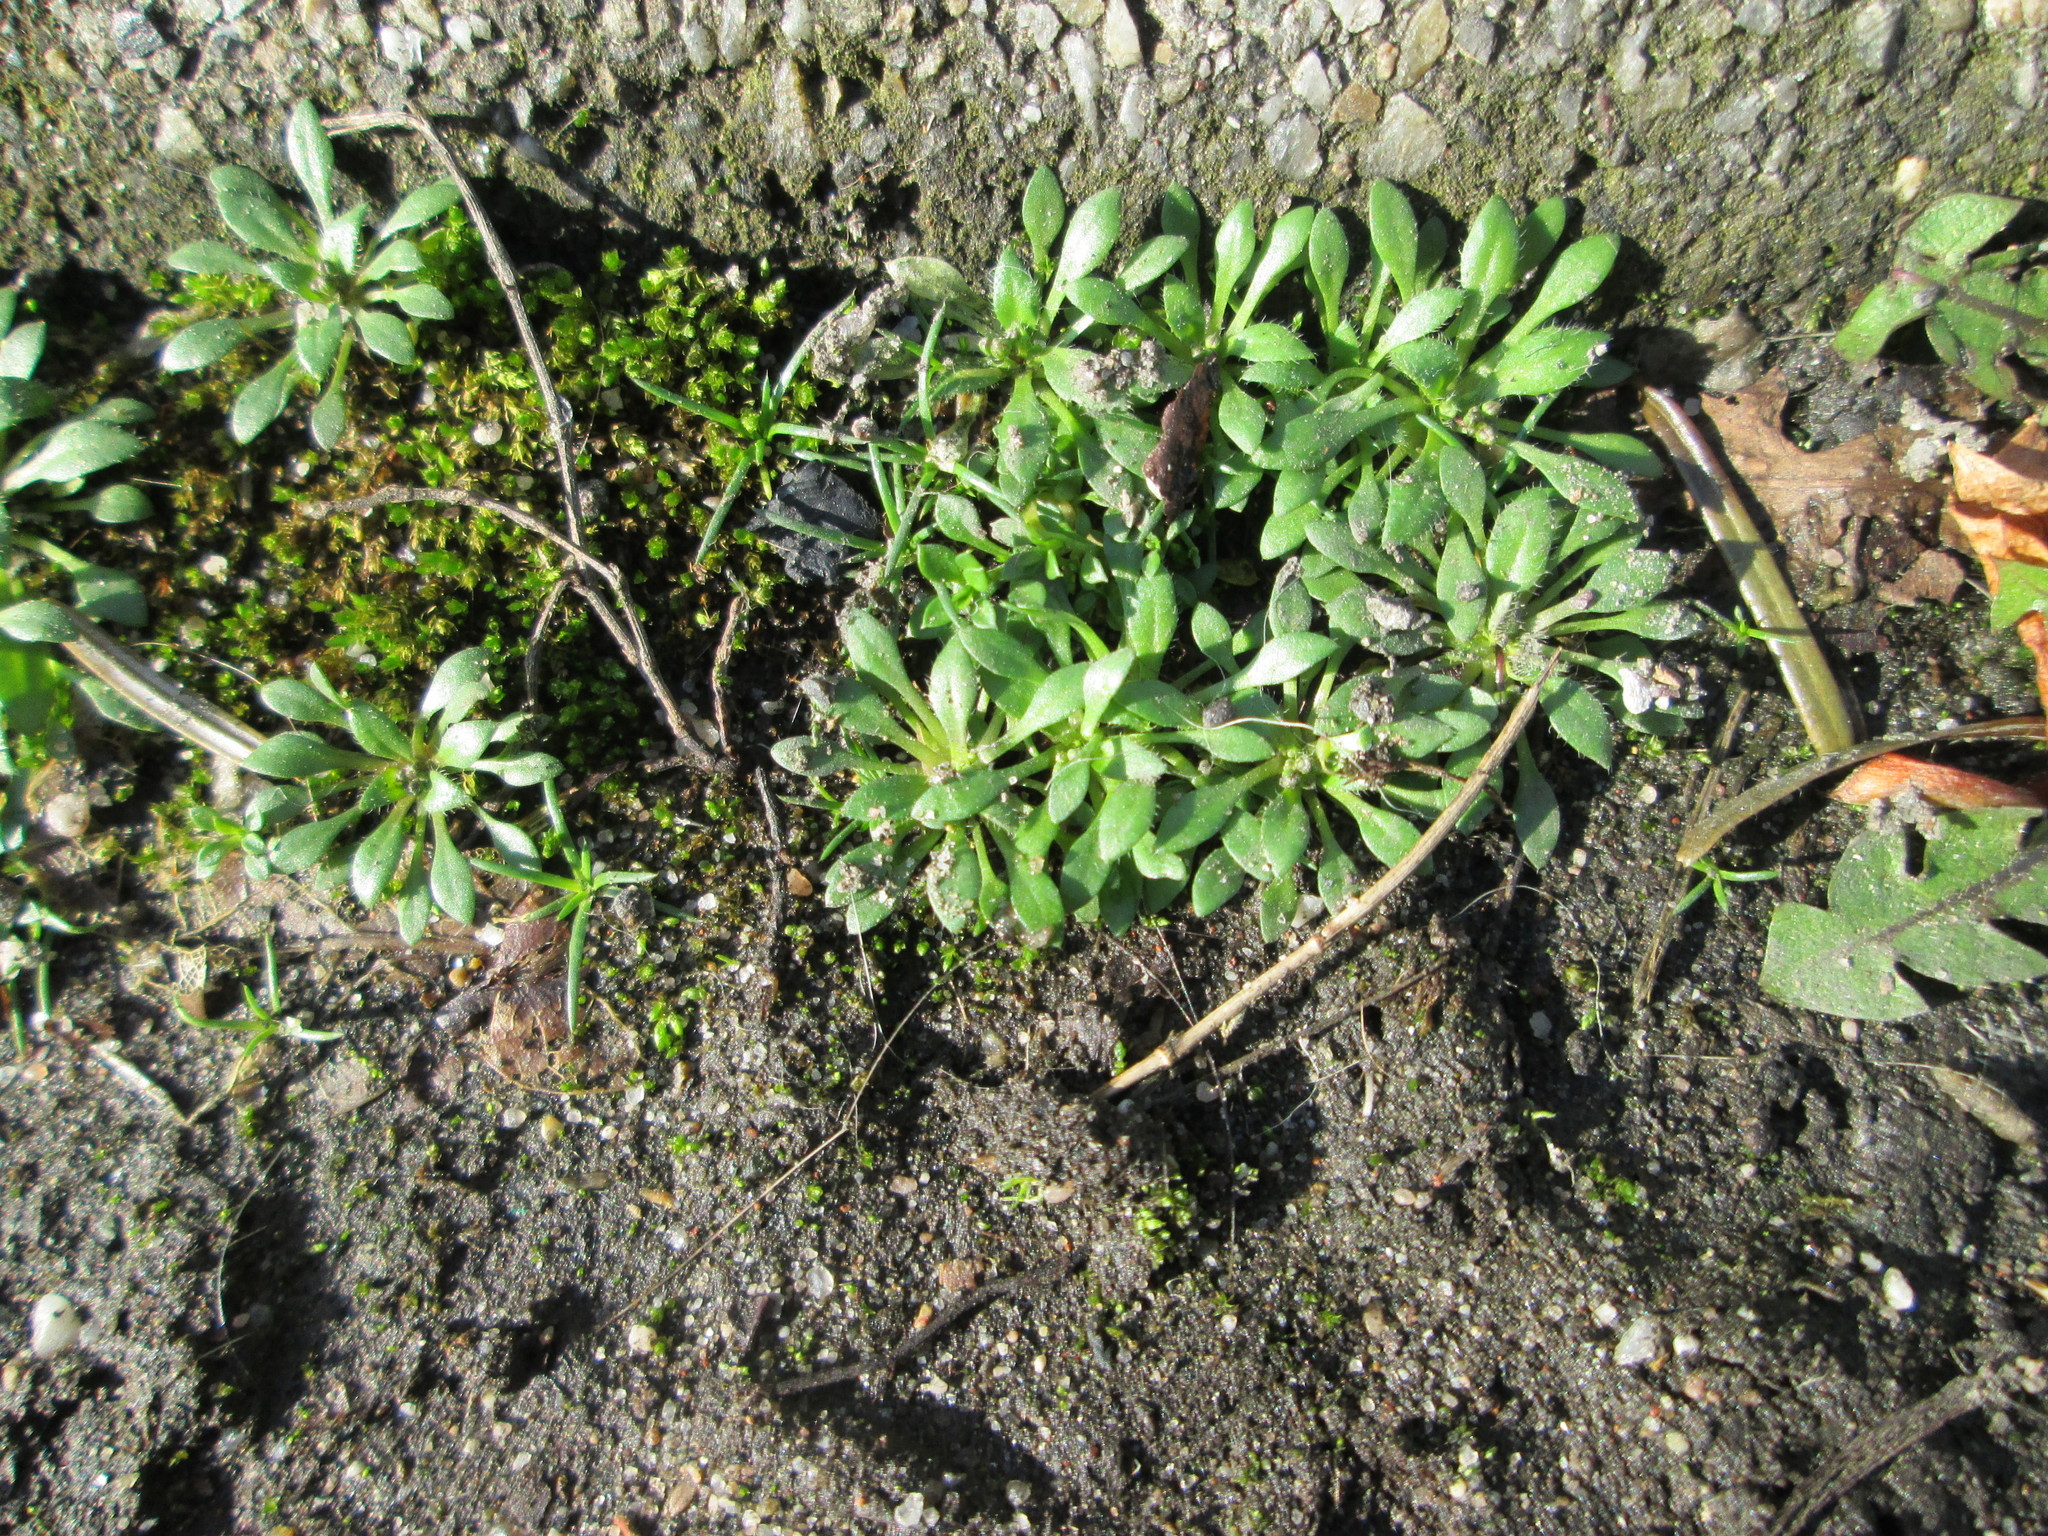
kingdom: Plantae
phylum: Tracheophyta
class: Magnoliopsida
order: Brassicales
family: Brassicaceae
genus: Draba
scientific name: Draba verna
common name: Spring draba
